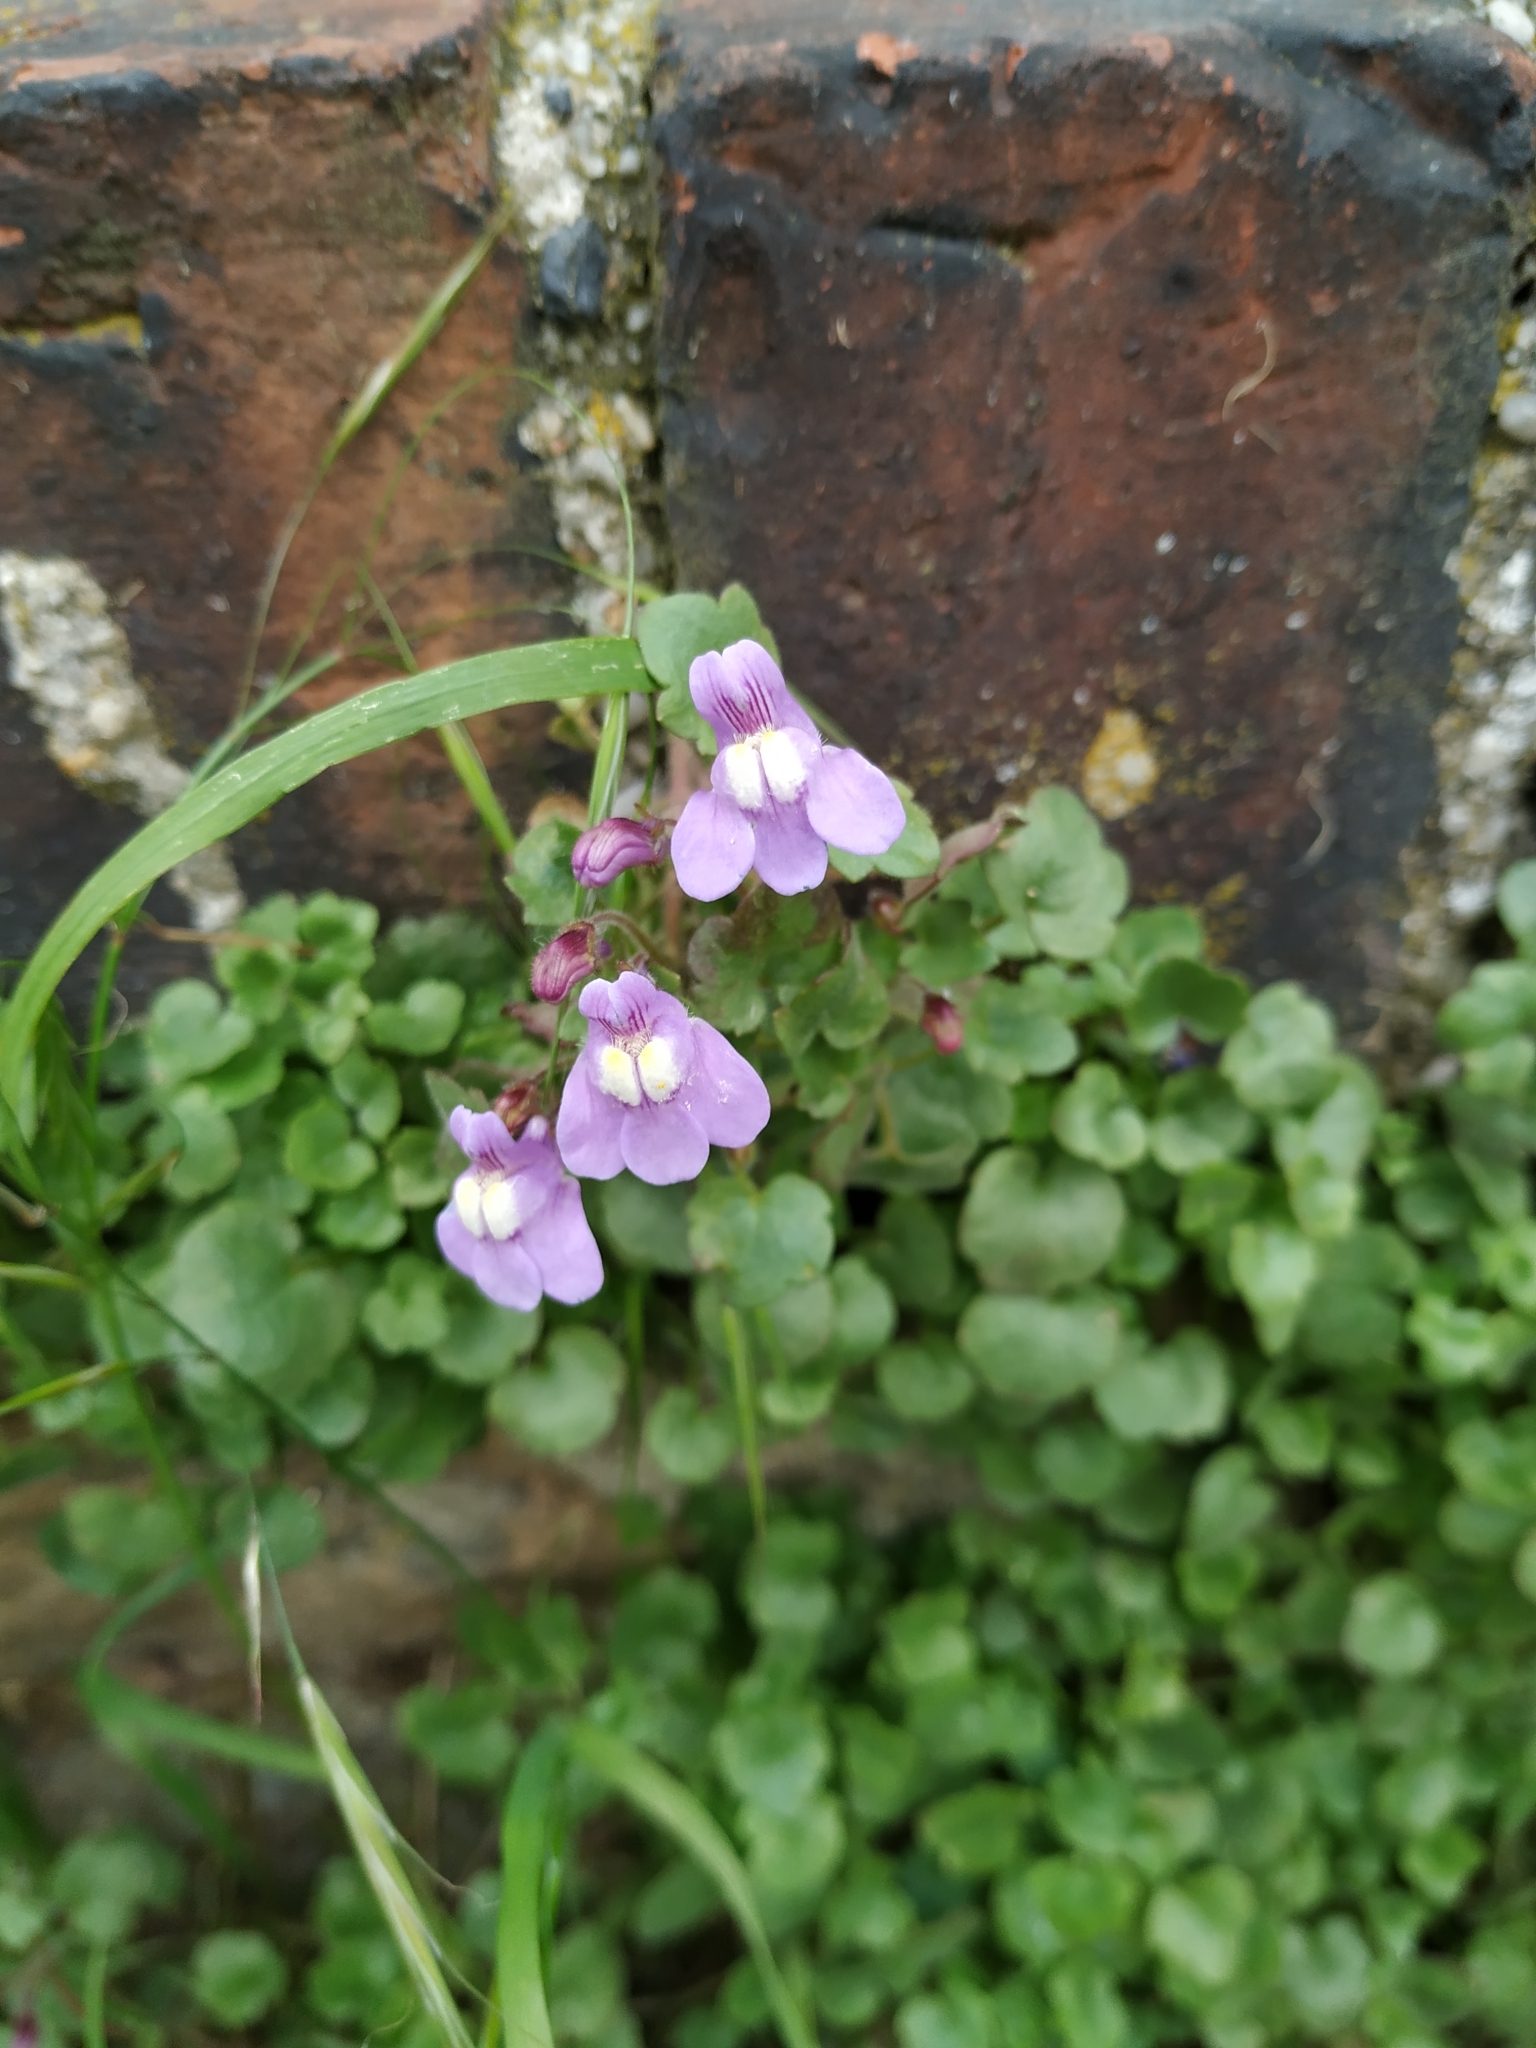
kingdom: Plantae
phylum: Tracheophyta
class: Magnoliopsida
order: Lamiales
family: Plantaginaceae
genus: Cymbalaria
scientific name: Cymbalaria muralis
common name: Ivy-leaved toadflax
